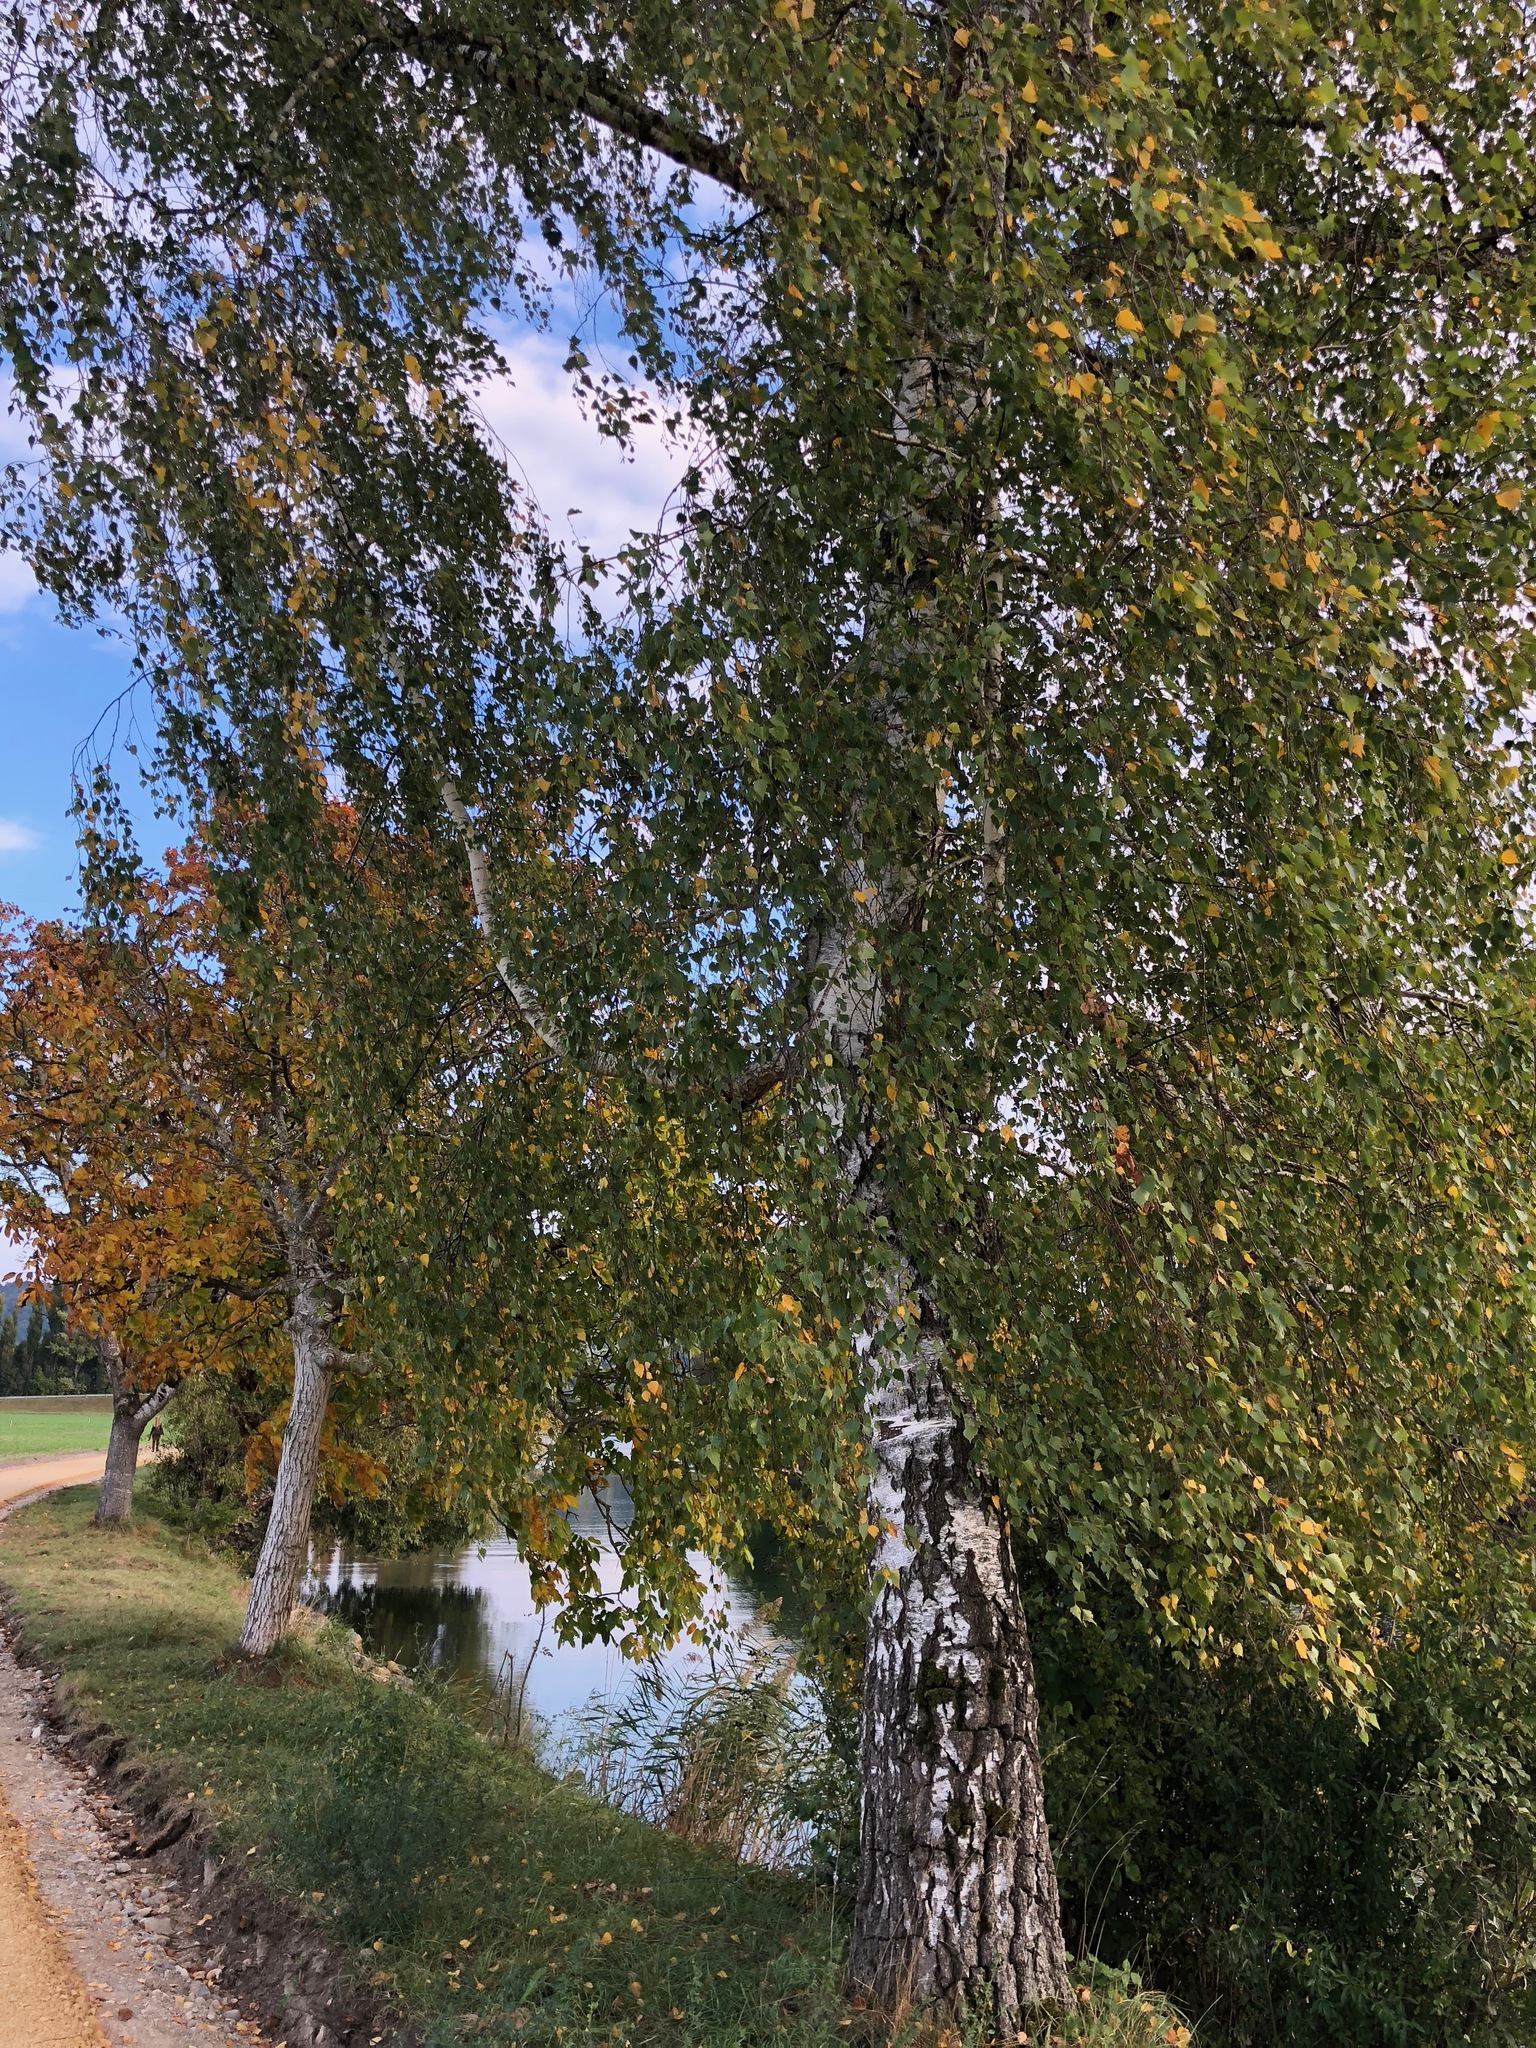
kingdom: Plantae
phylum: Tracheophyta
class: Magnoliopsida
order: Fagales
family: Betulaceae
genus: Betula
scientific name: Betula pendula
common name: Silver birch
